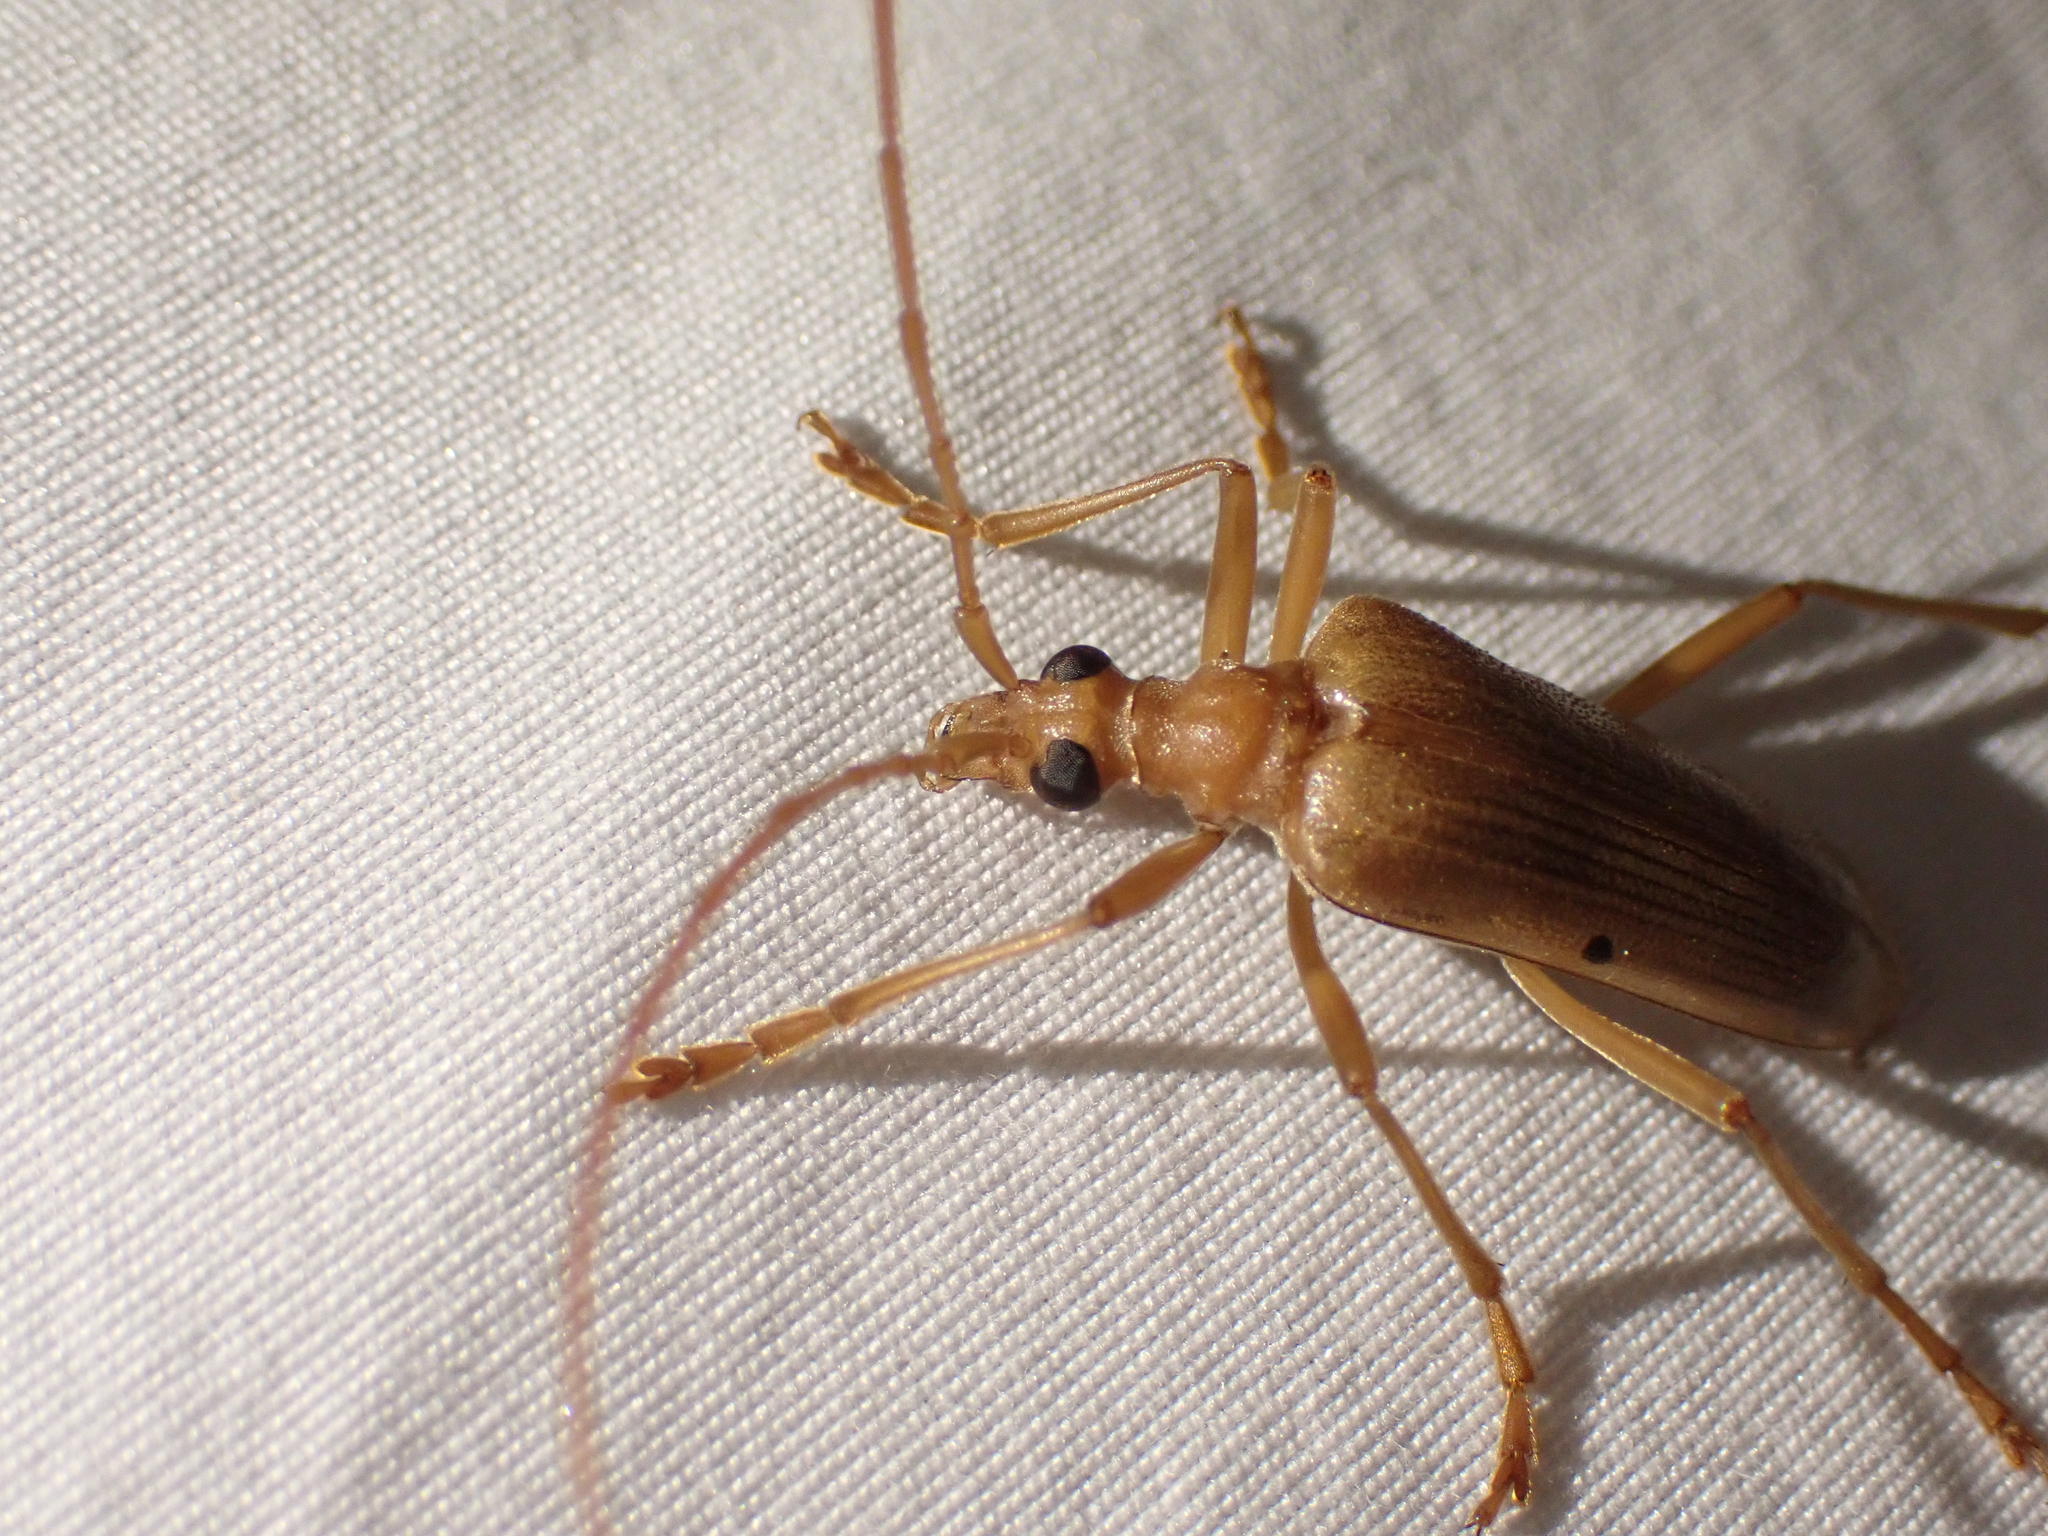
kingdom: Animalia
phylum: Arthropoda
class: Insecta
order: Coleoptera
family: Cerambycidae
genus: Centrodera
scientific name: Centrodera spurca
